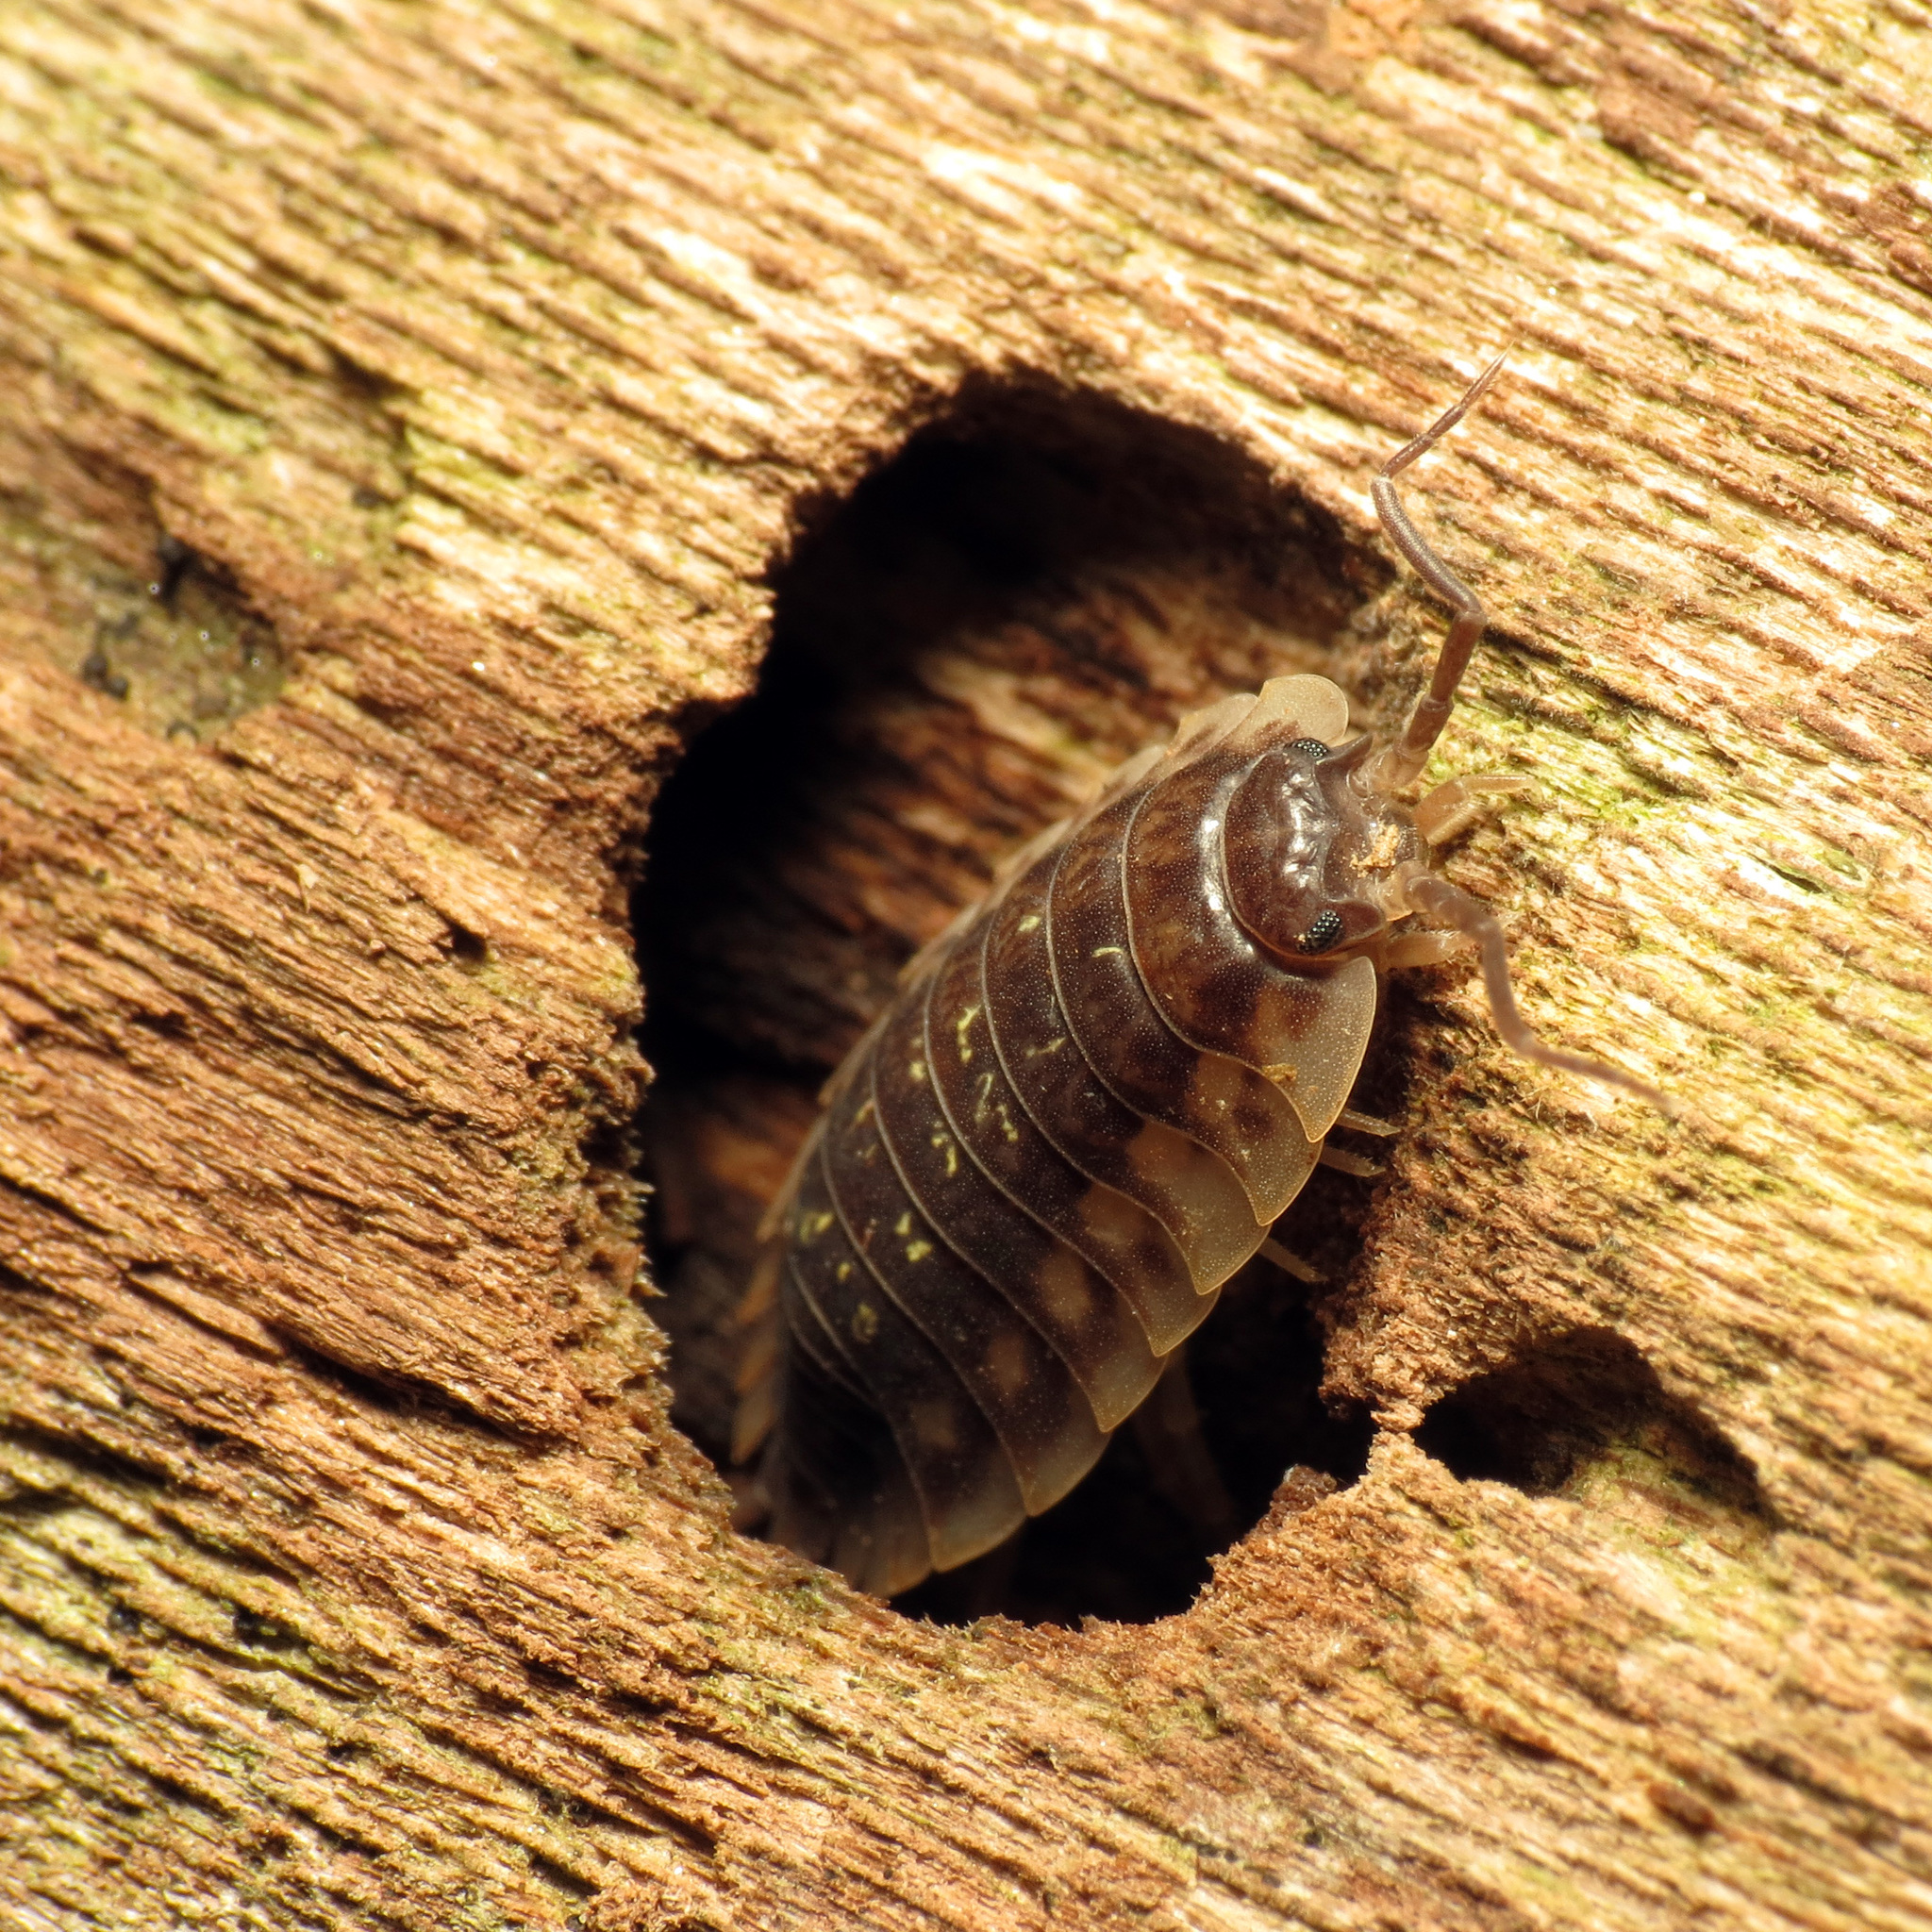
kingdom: Animalia
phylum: Arthropoda
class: Malacostraca
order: Isopoda
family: Oniscidae
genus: Oniscus
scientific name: Oniscus asellus
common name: Common shiny woodlouse
